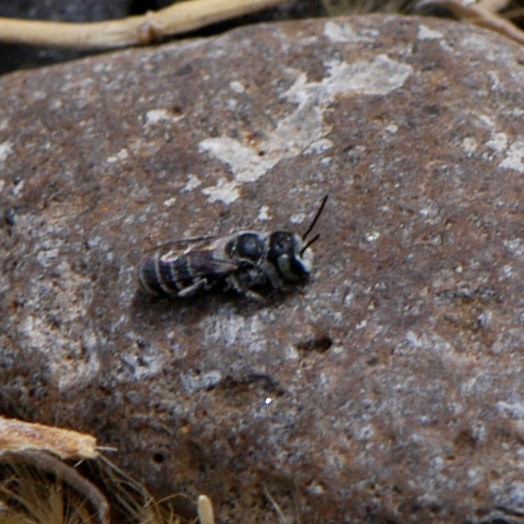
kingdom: Animalia
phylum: Arthropoda
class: Insecta
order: Hymenoptera
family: Megachilidae
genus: Ashmeadiella
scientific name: Ashmeadiella
